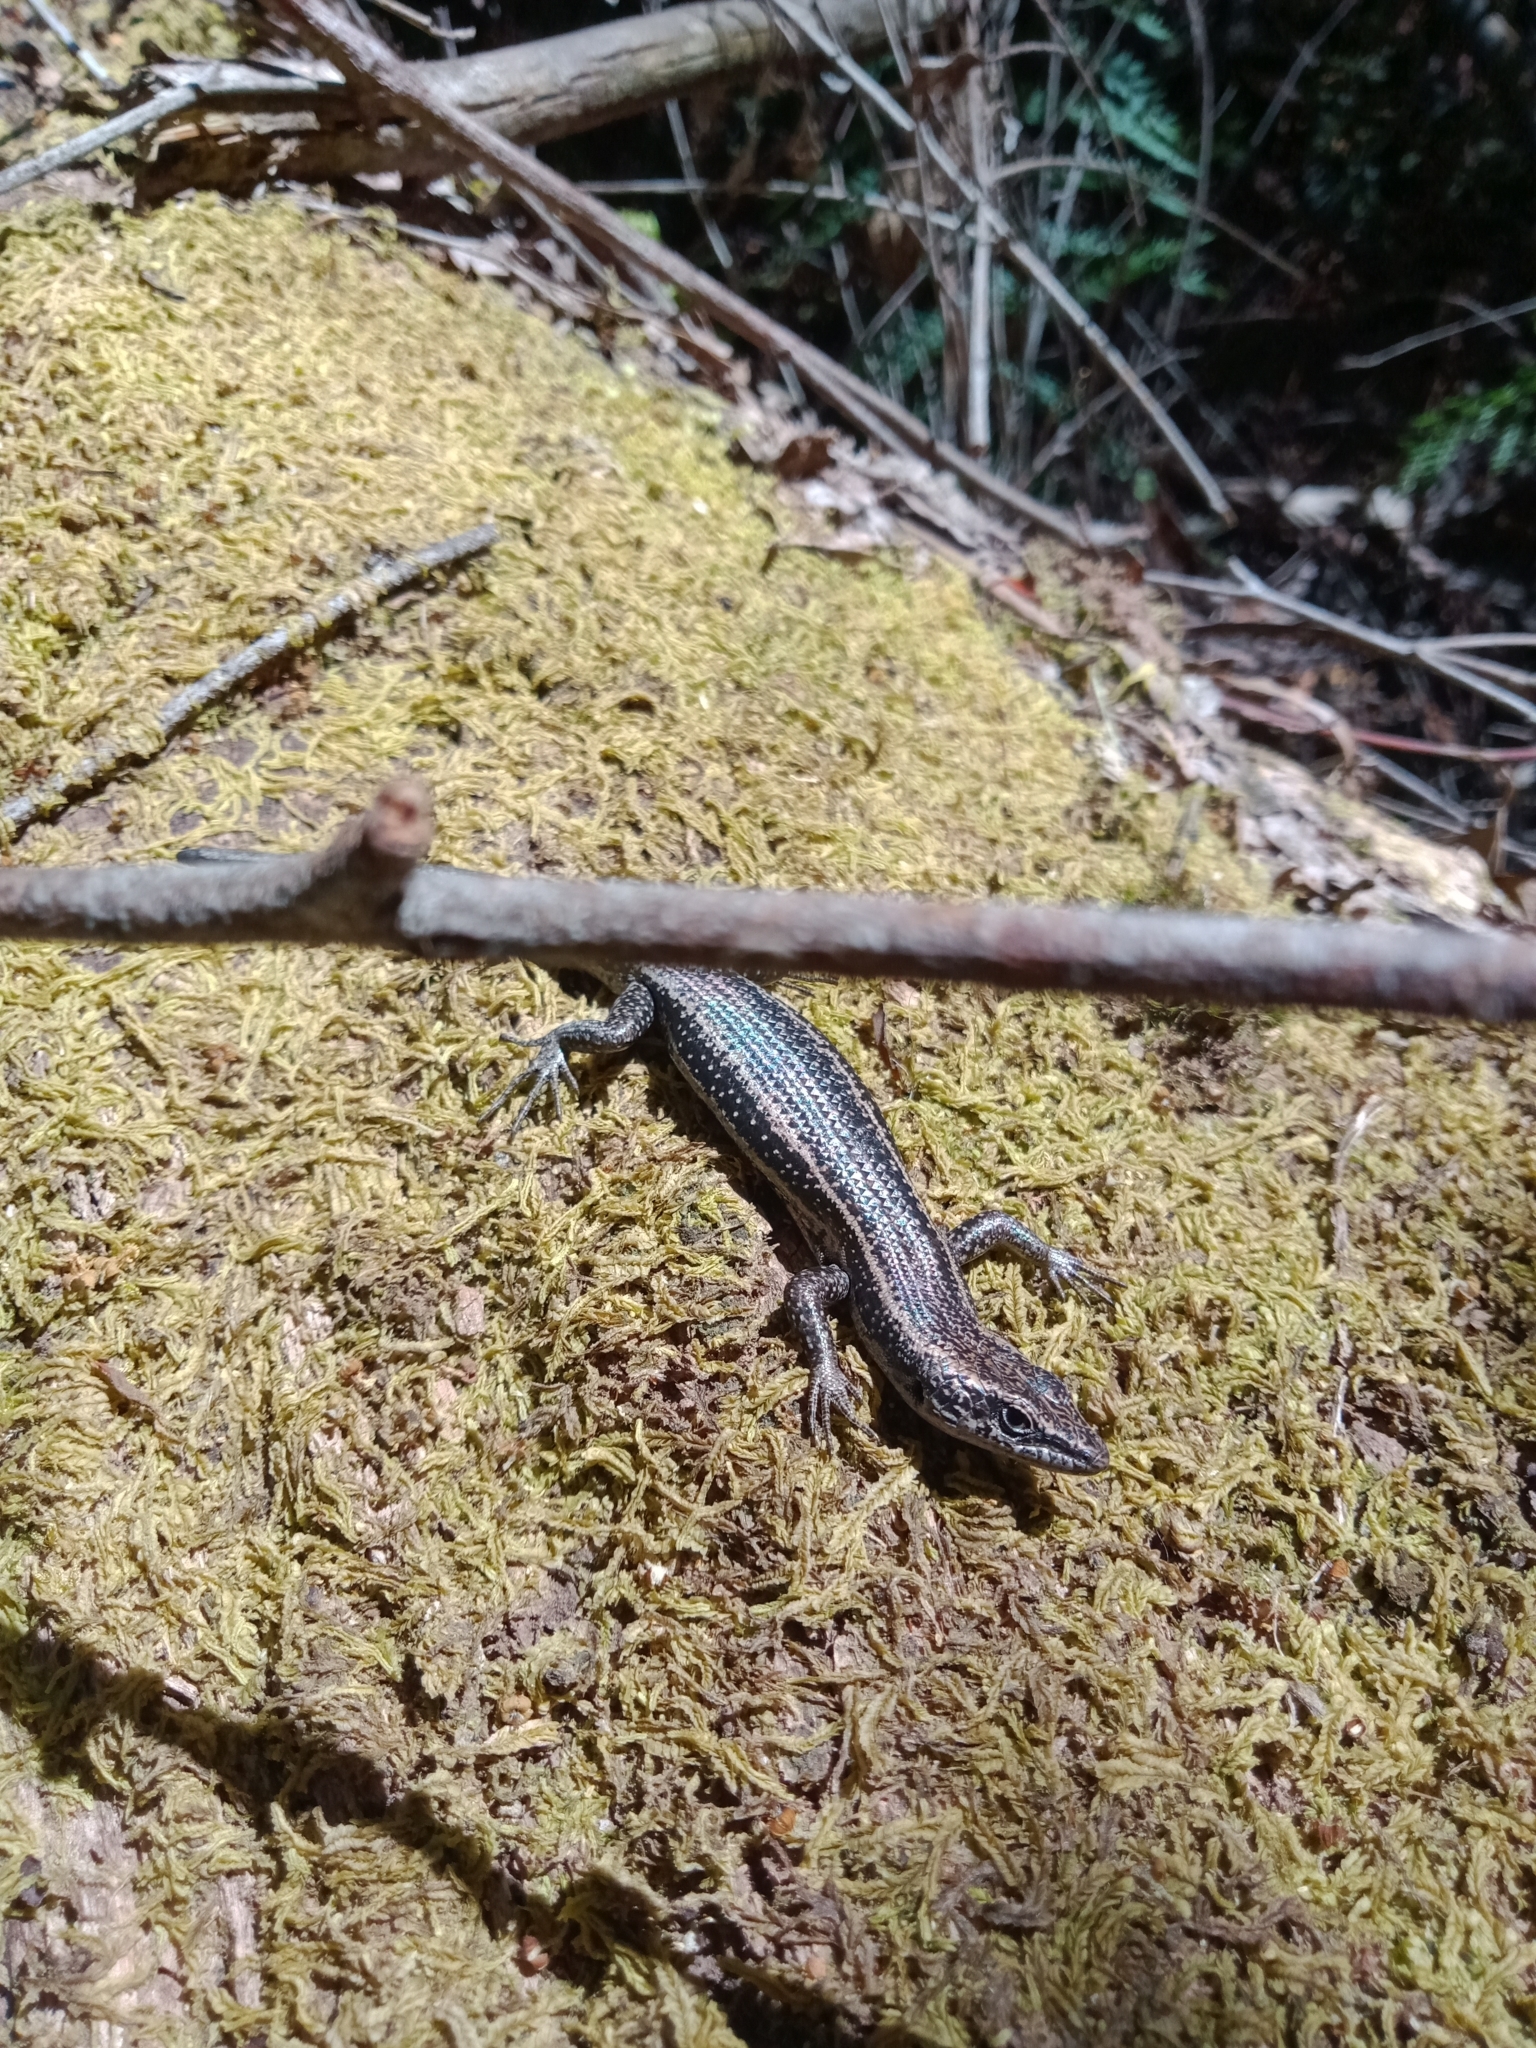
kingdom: Animalia
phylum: Chordata
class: Squamata
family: Scincidae
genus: Pseudemoia
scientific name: Pseudemoia spenceri
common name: Trunk-climbing cool-skink
